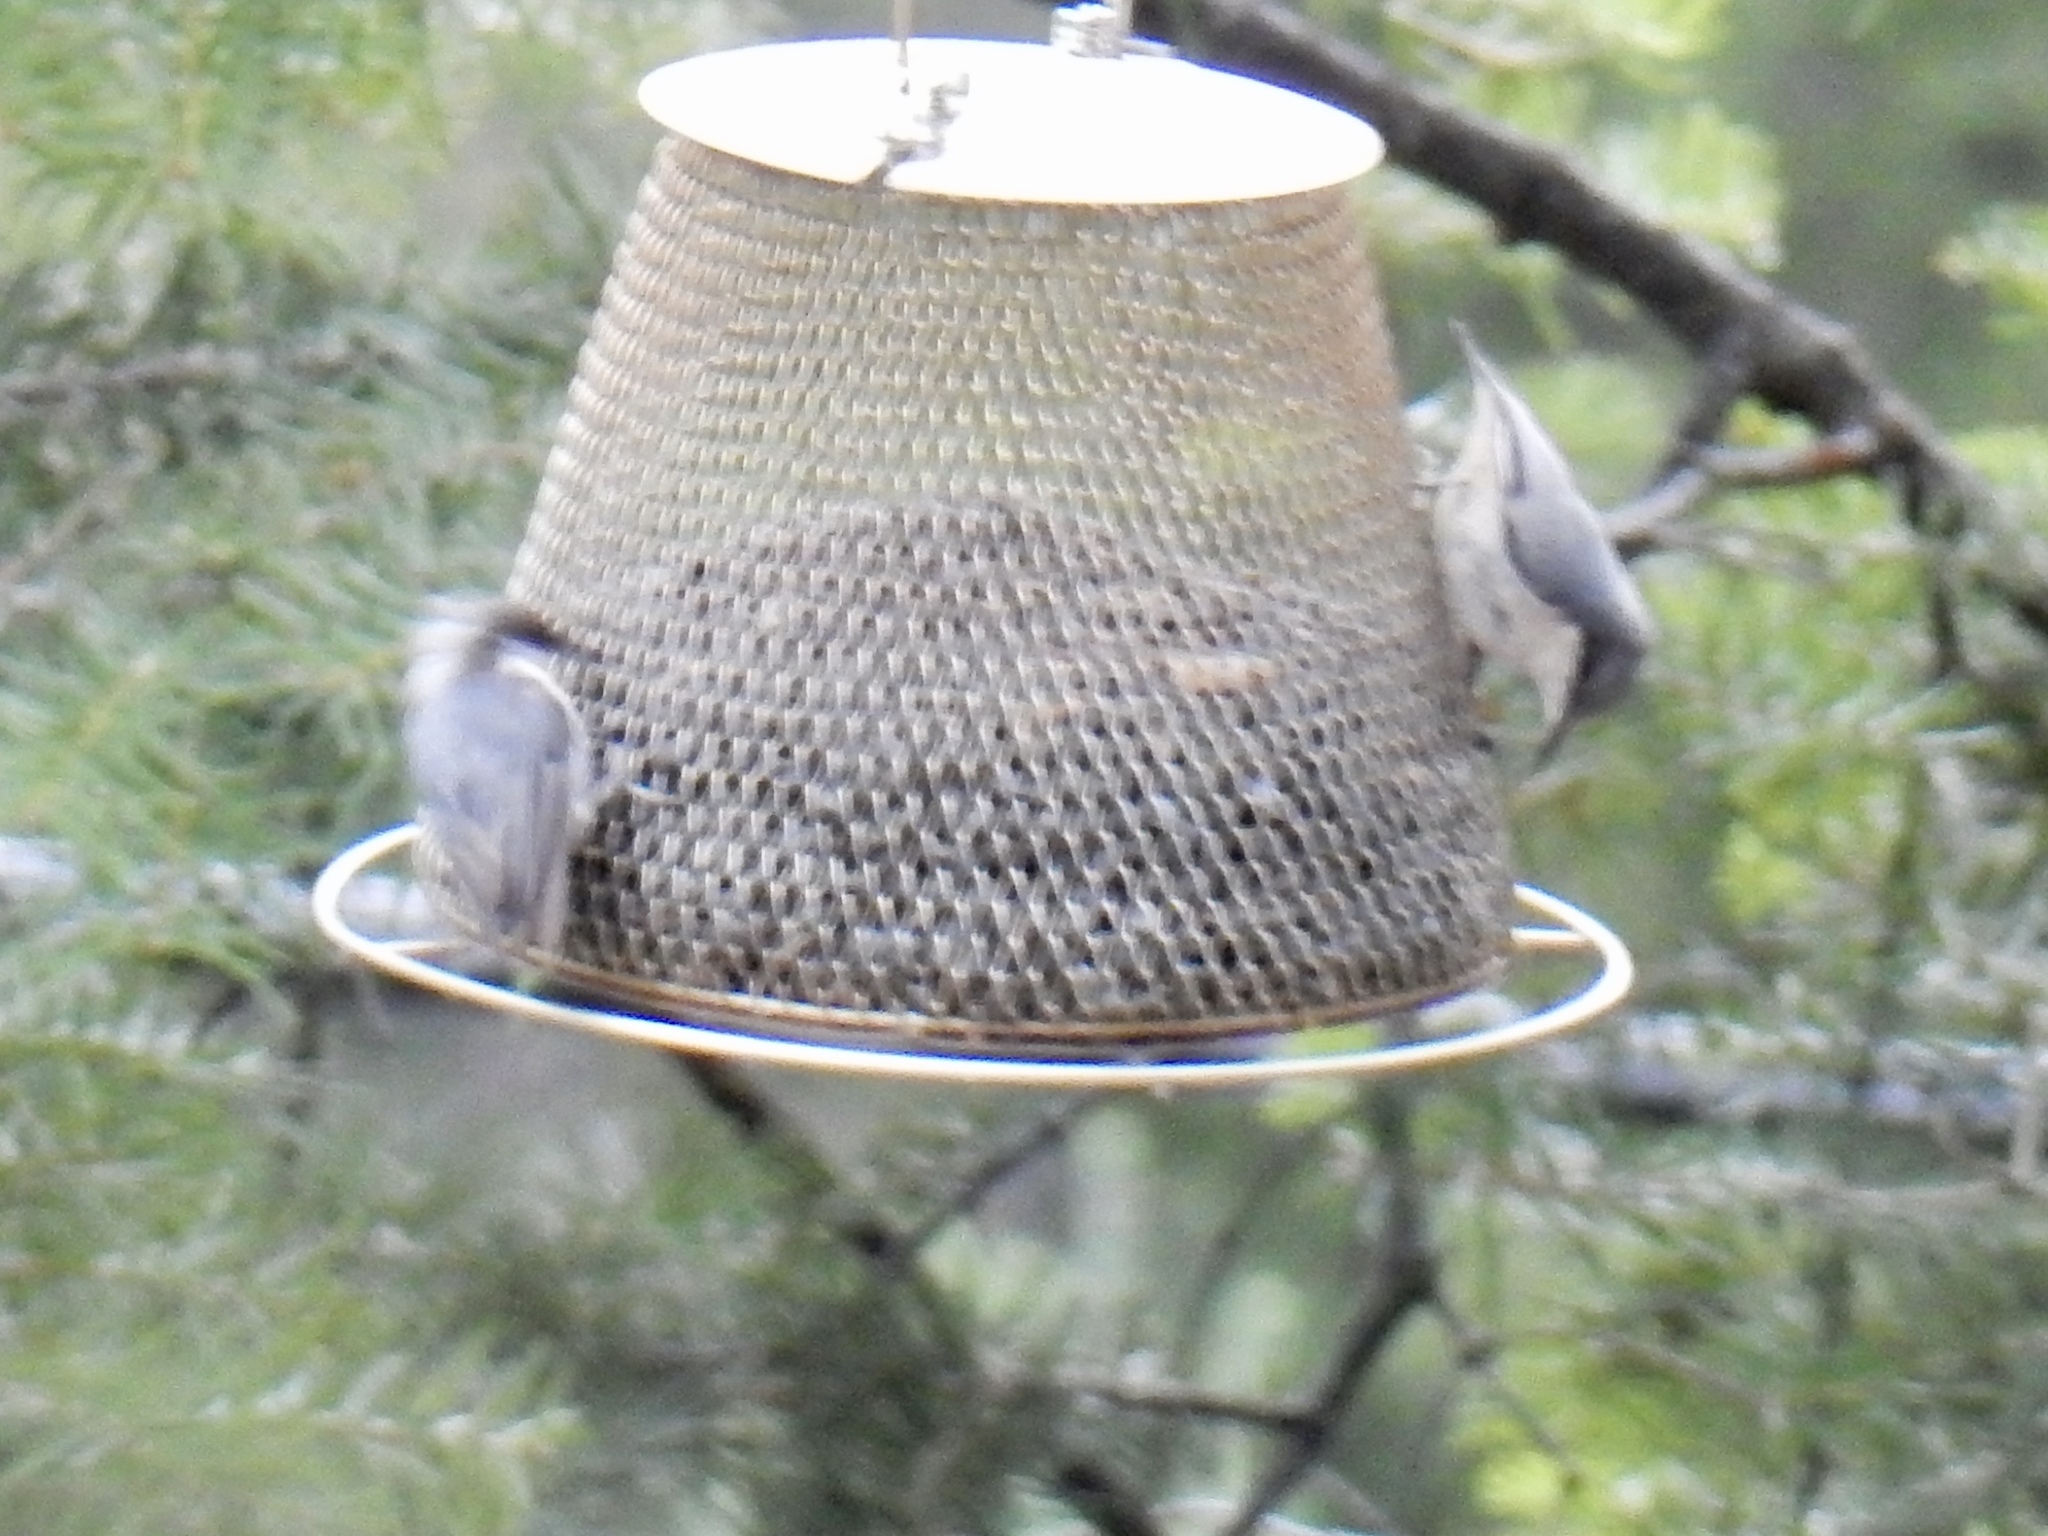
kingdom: Animalia
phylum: Chordata
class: Aves
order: Passeriformes
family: Sittidae
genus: Sitta
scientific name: Sitta pygmaea
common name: Pygmy nuthatch
